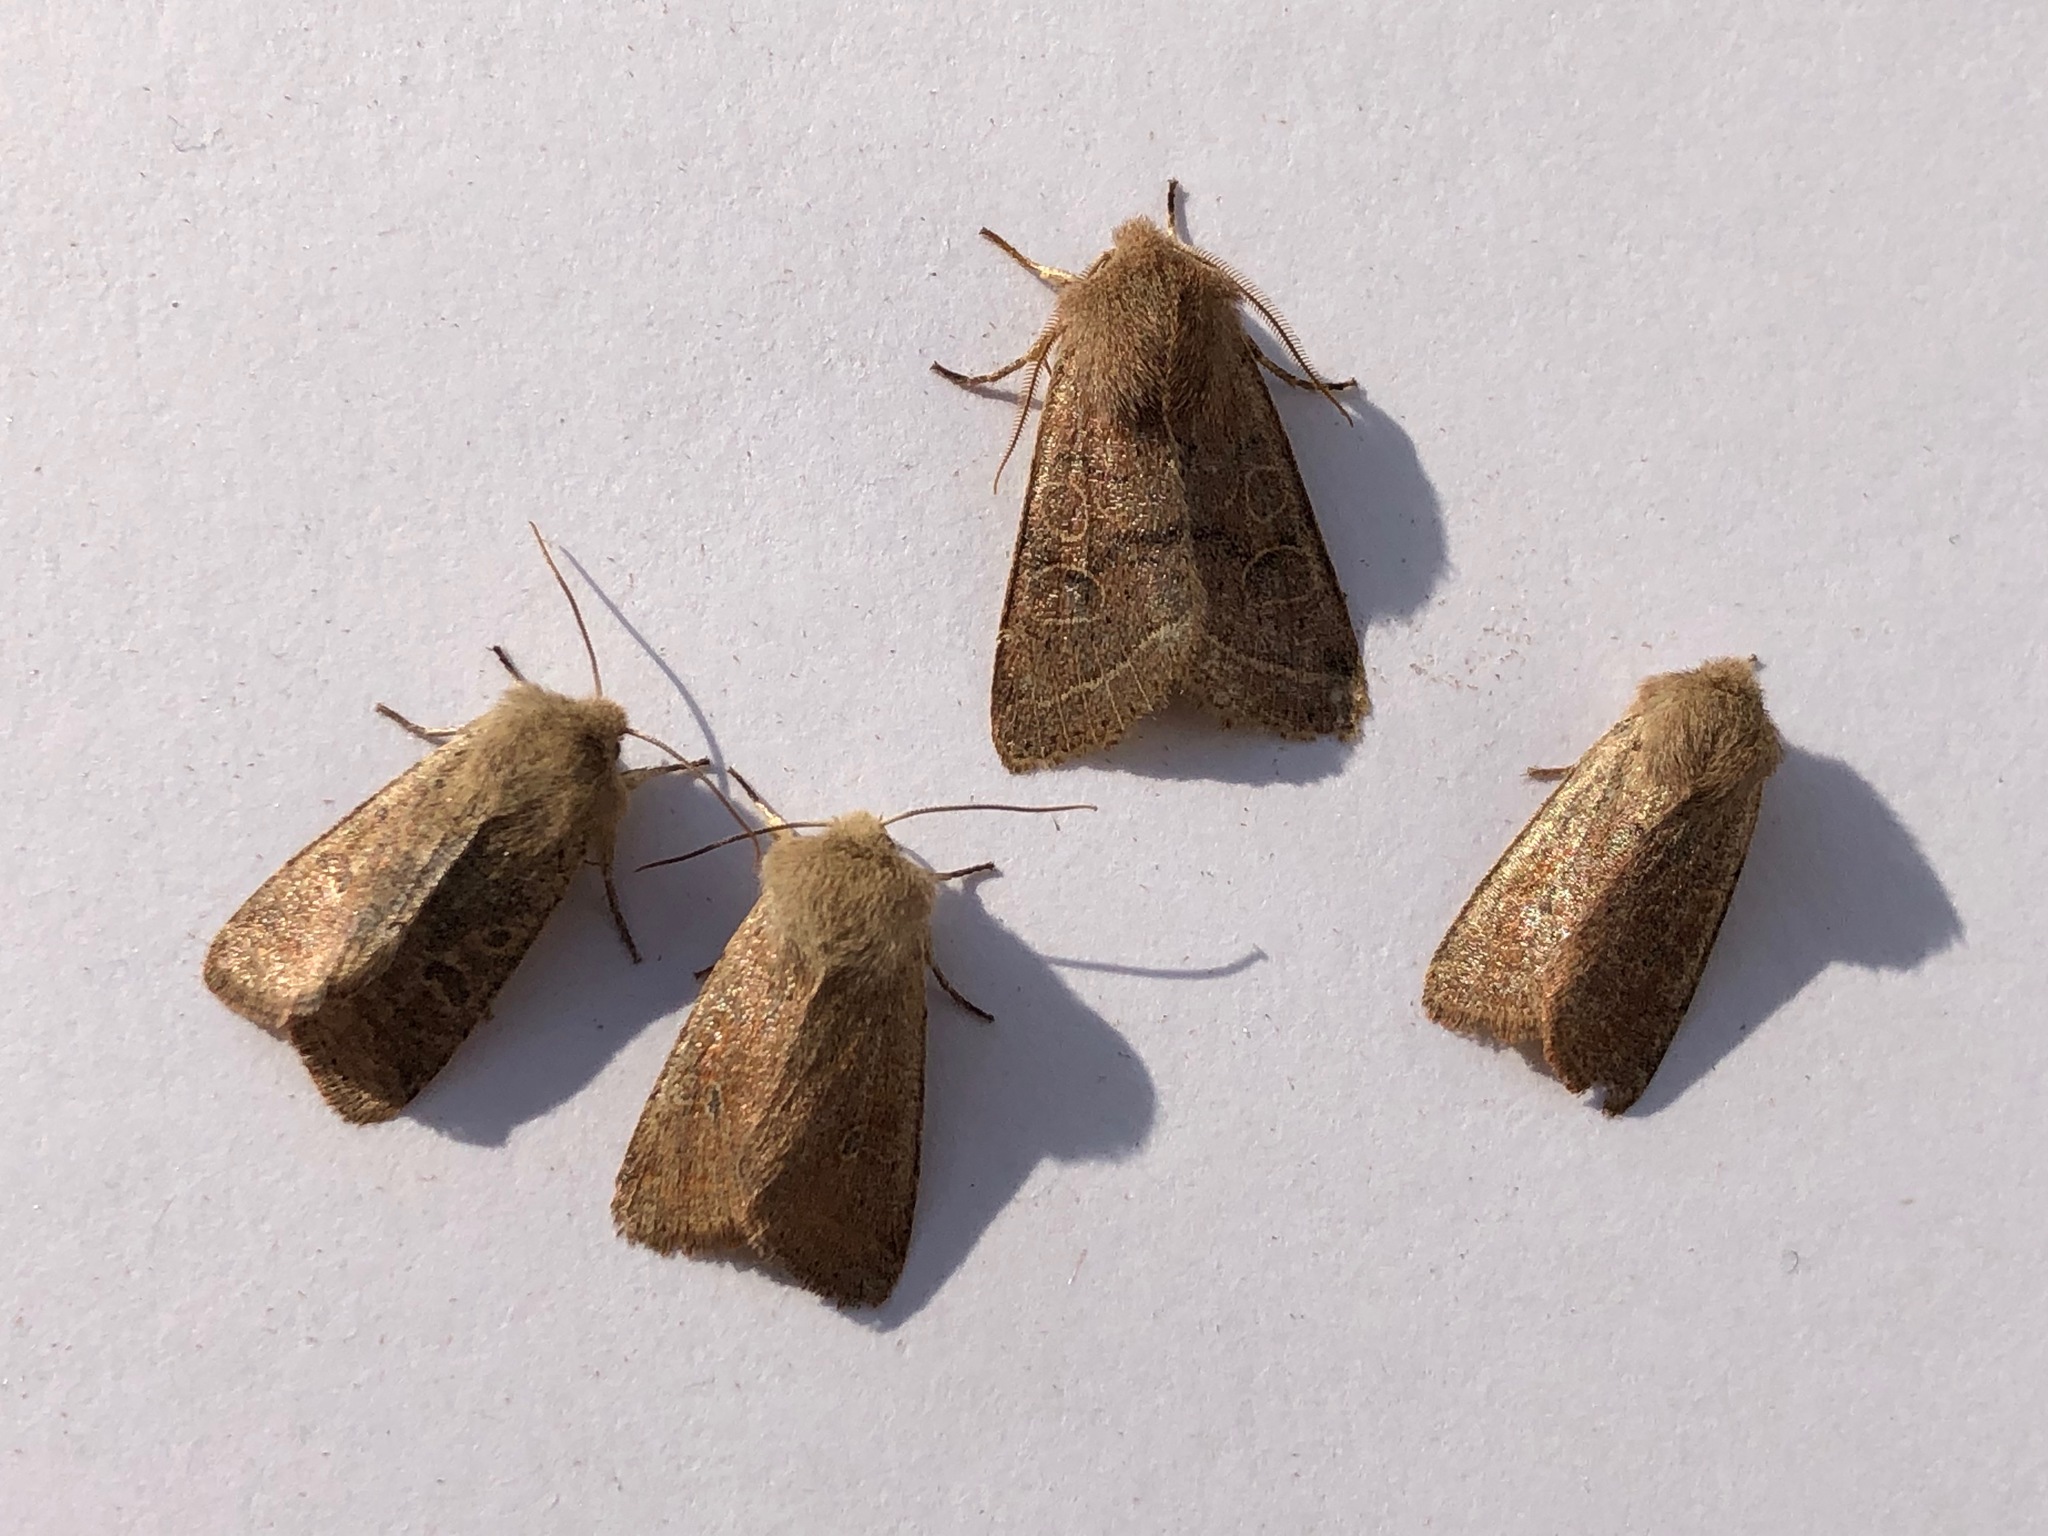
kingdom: Animalia
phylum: Arthropoda
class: Insecta
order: Lepidoptera
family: Noctuidae
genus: Orthosia
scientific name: Orthosia cruda
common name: Small quaker
